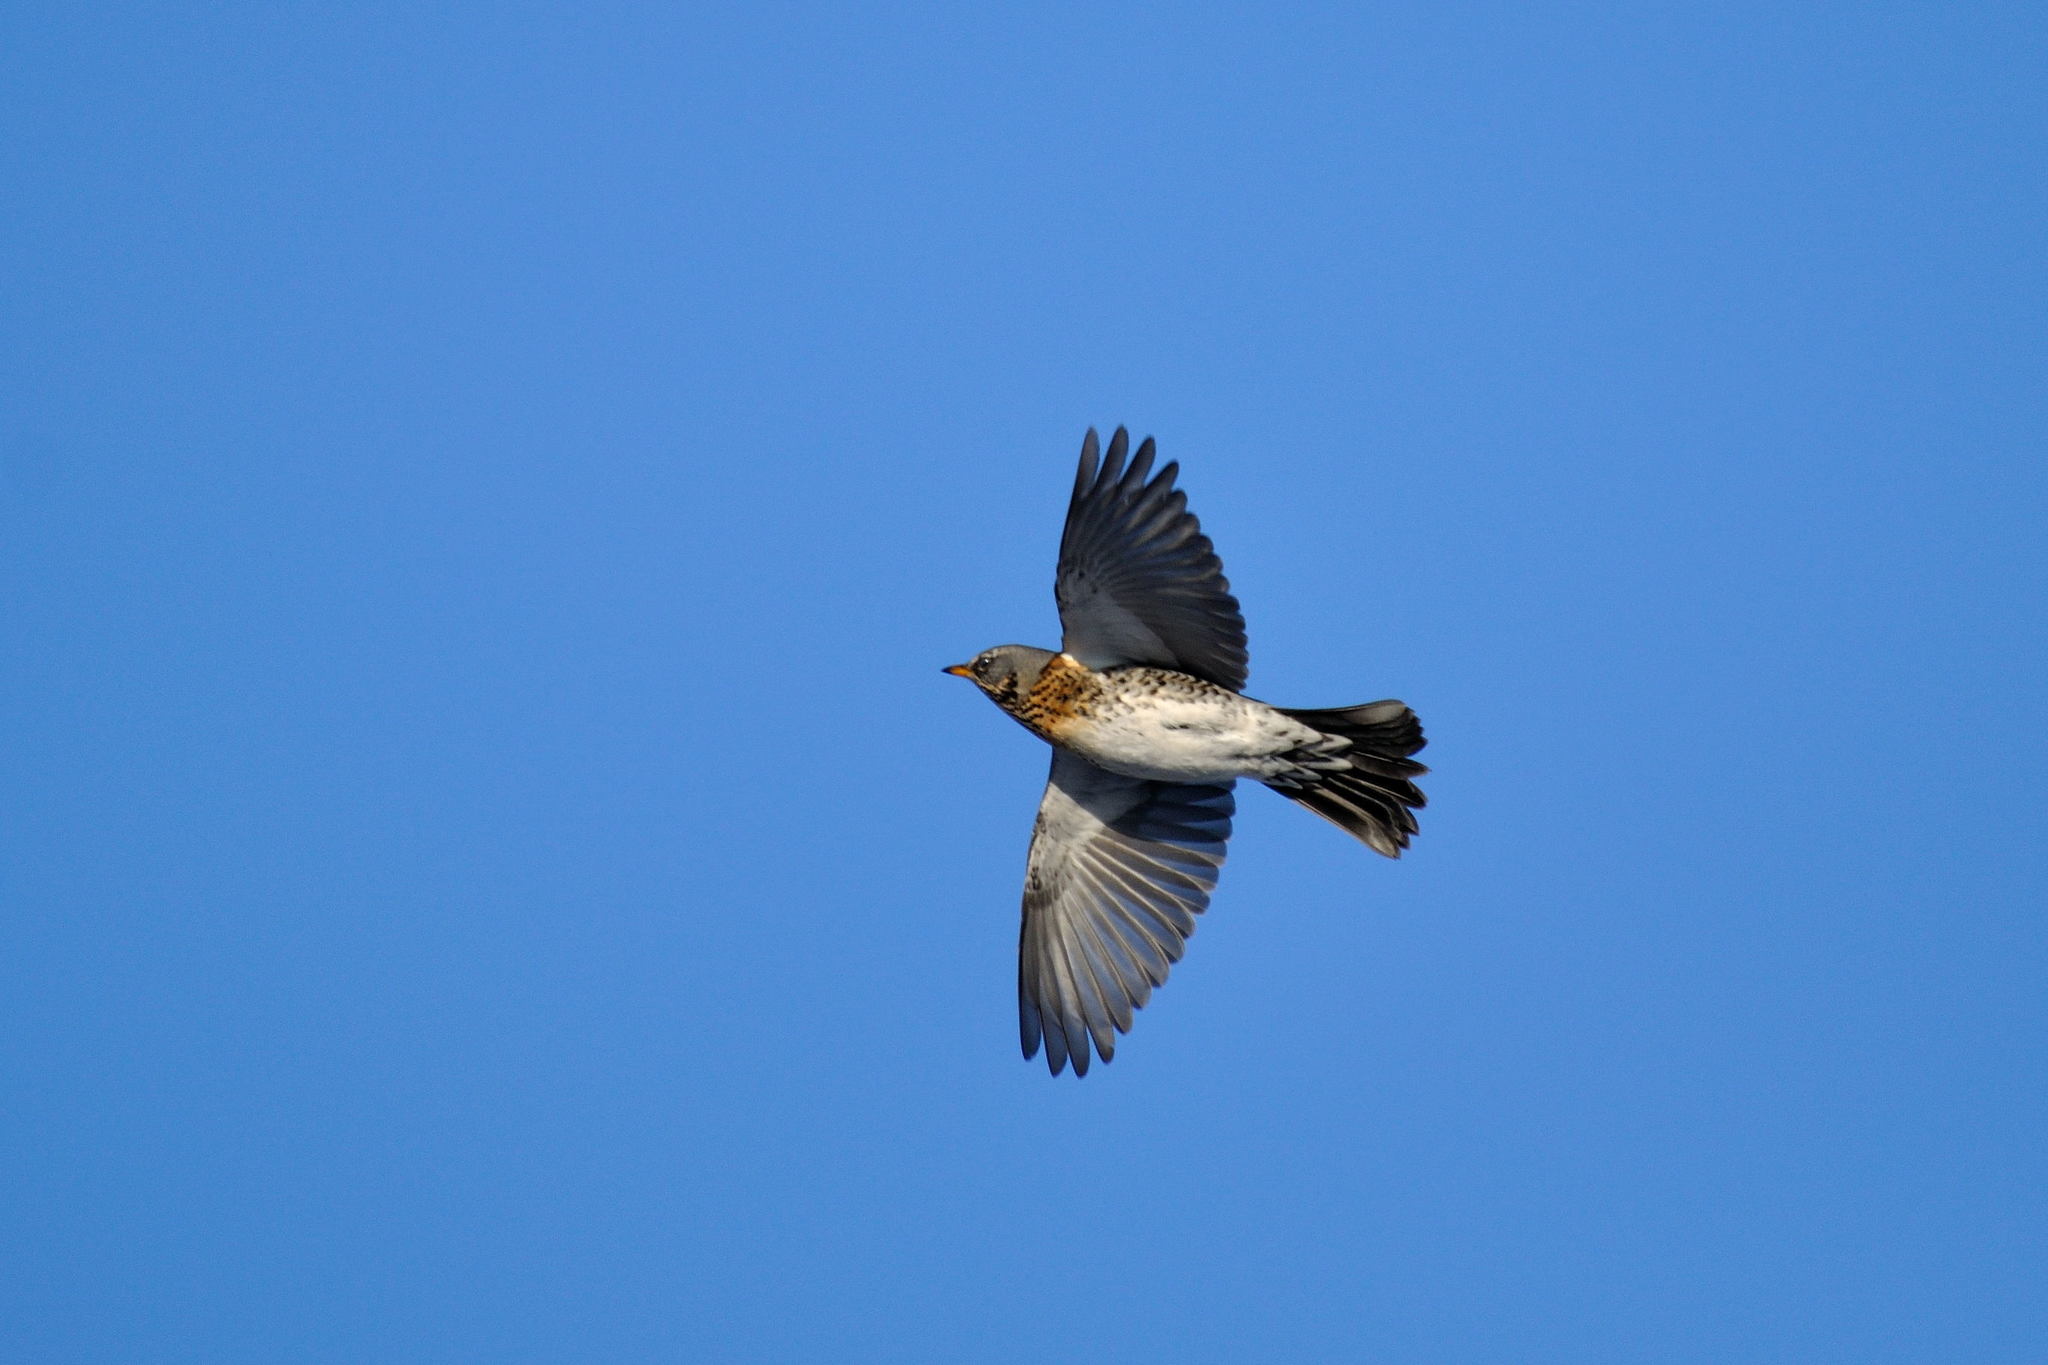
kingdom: Animalia
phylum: Chordata
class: Aves
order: Passeriformes
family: Turdidae
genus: Turdus
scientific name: Turdus pilaris
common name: Fieldfare
